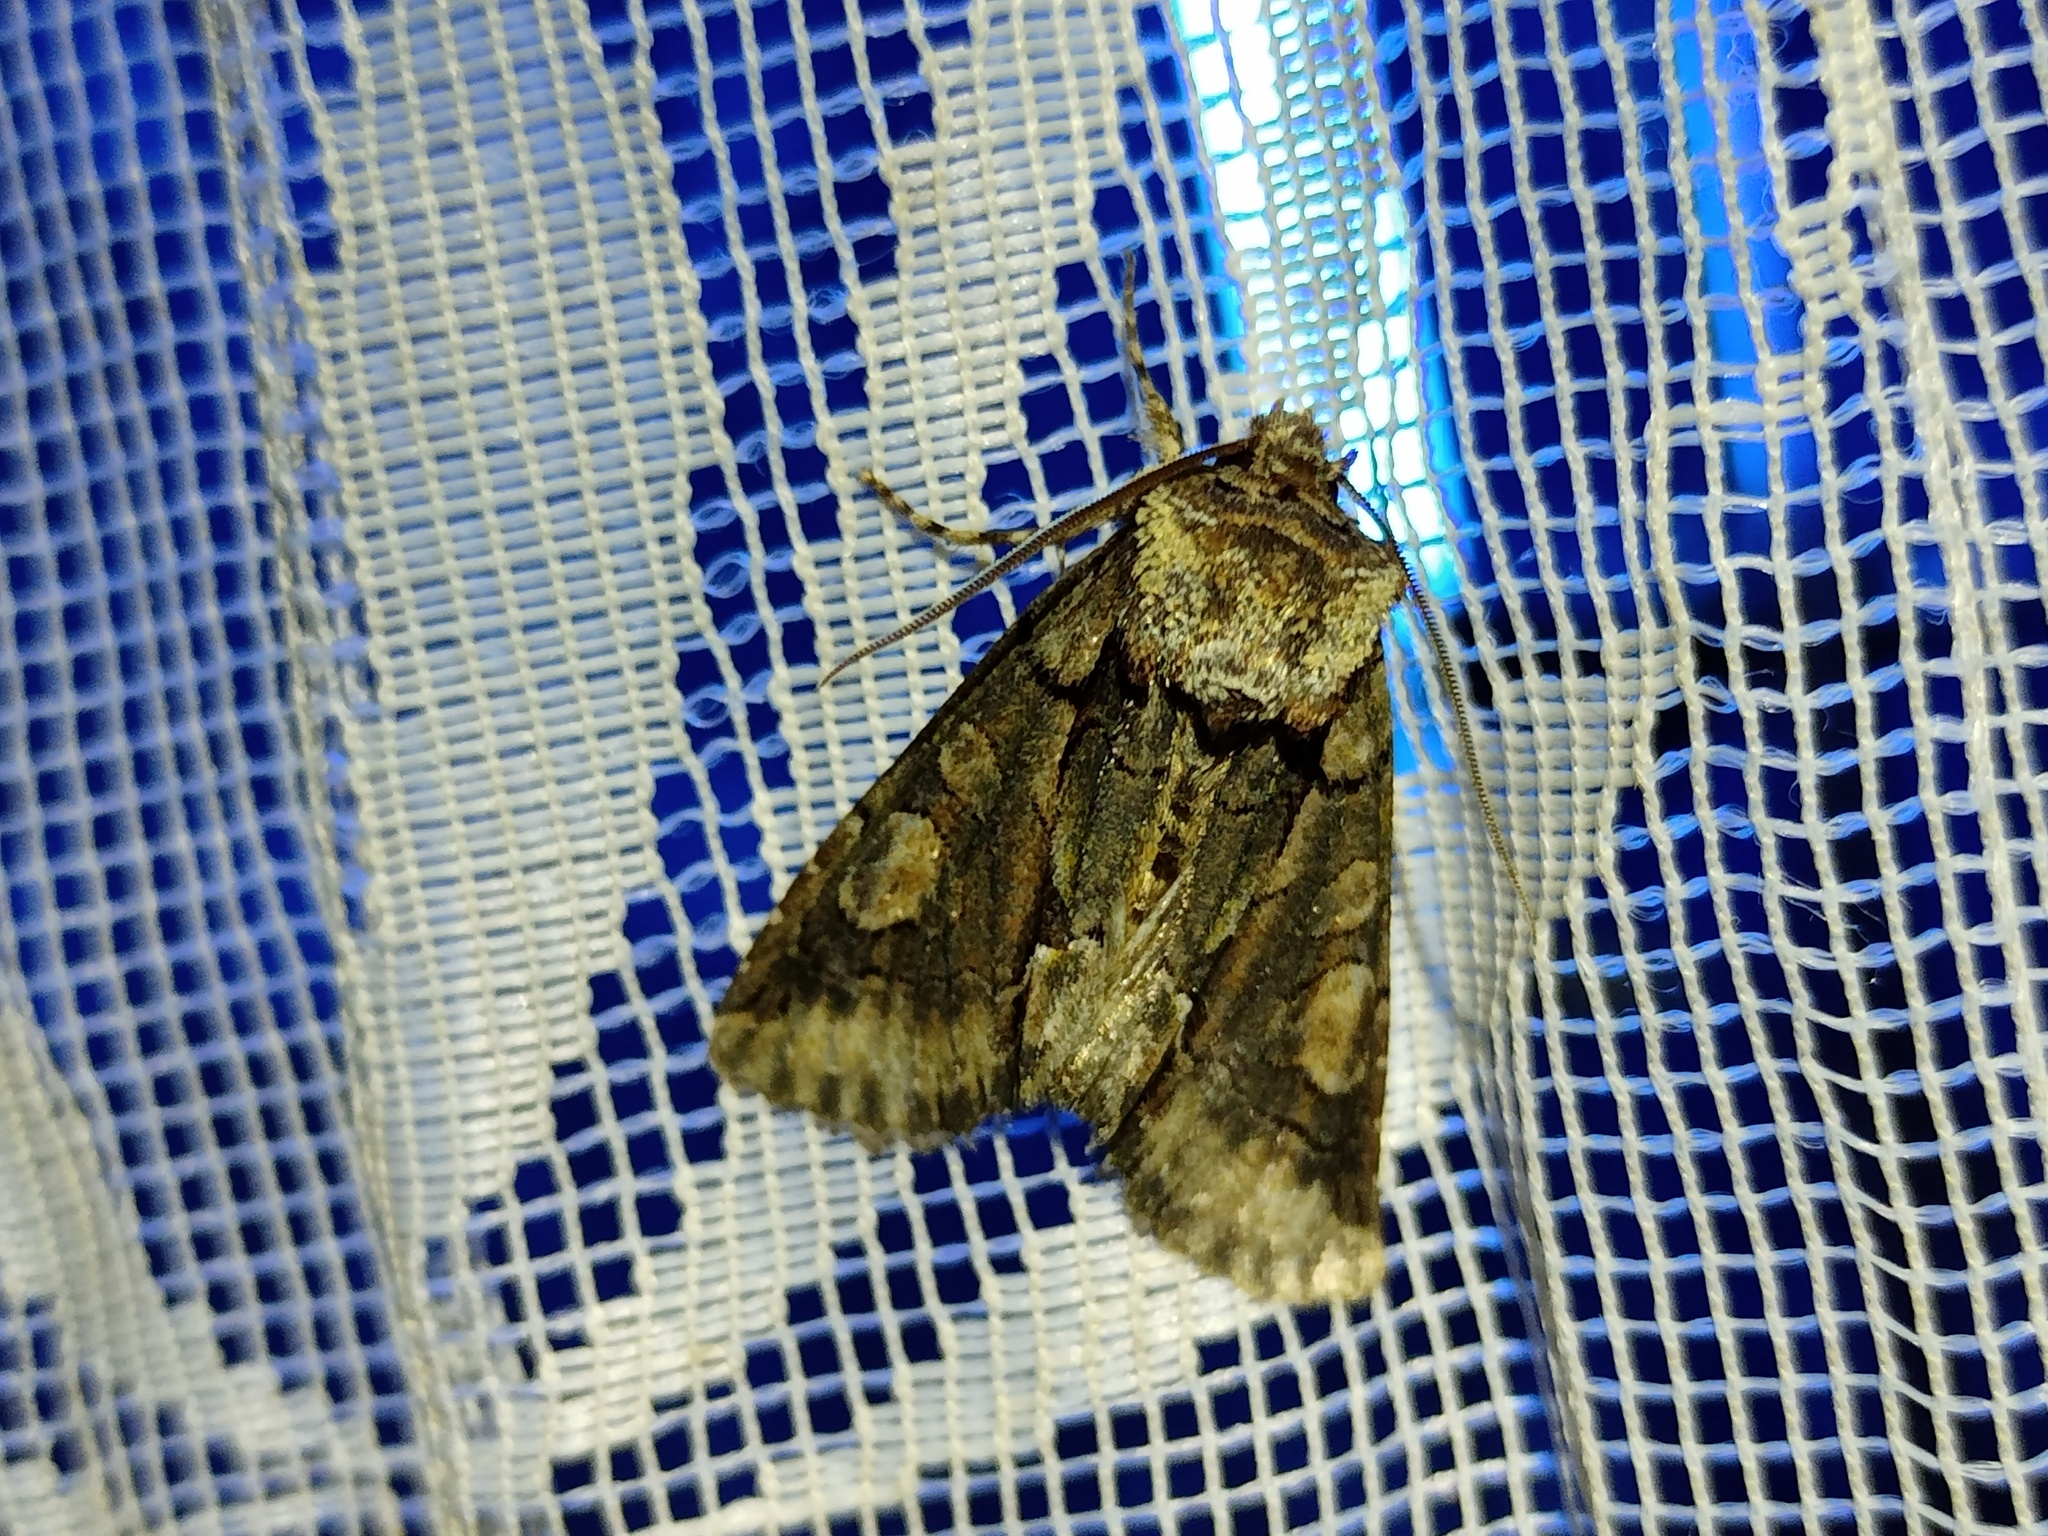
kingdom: Animalia
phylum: Arthropoda
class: Insecta
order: Lepidoptera
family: Noctuidae
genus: Allophyes
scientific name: Allophyes oxyacanthae
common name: Green-brindled crescent
